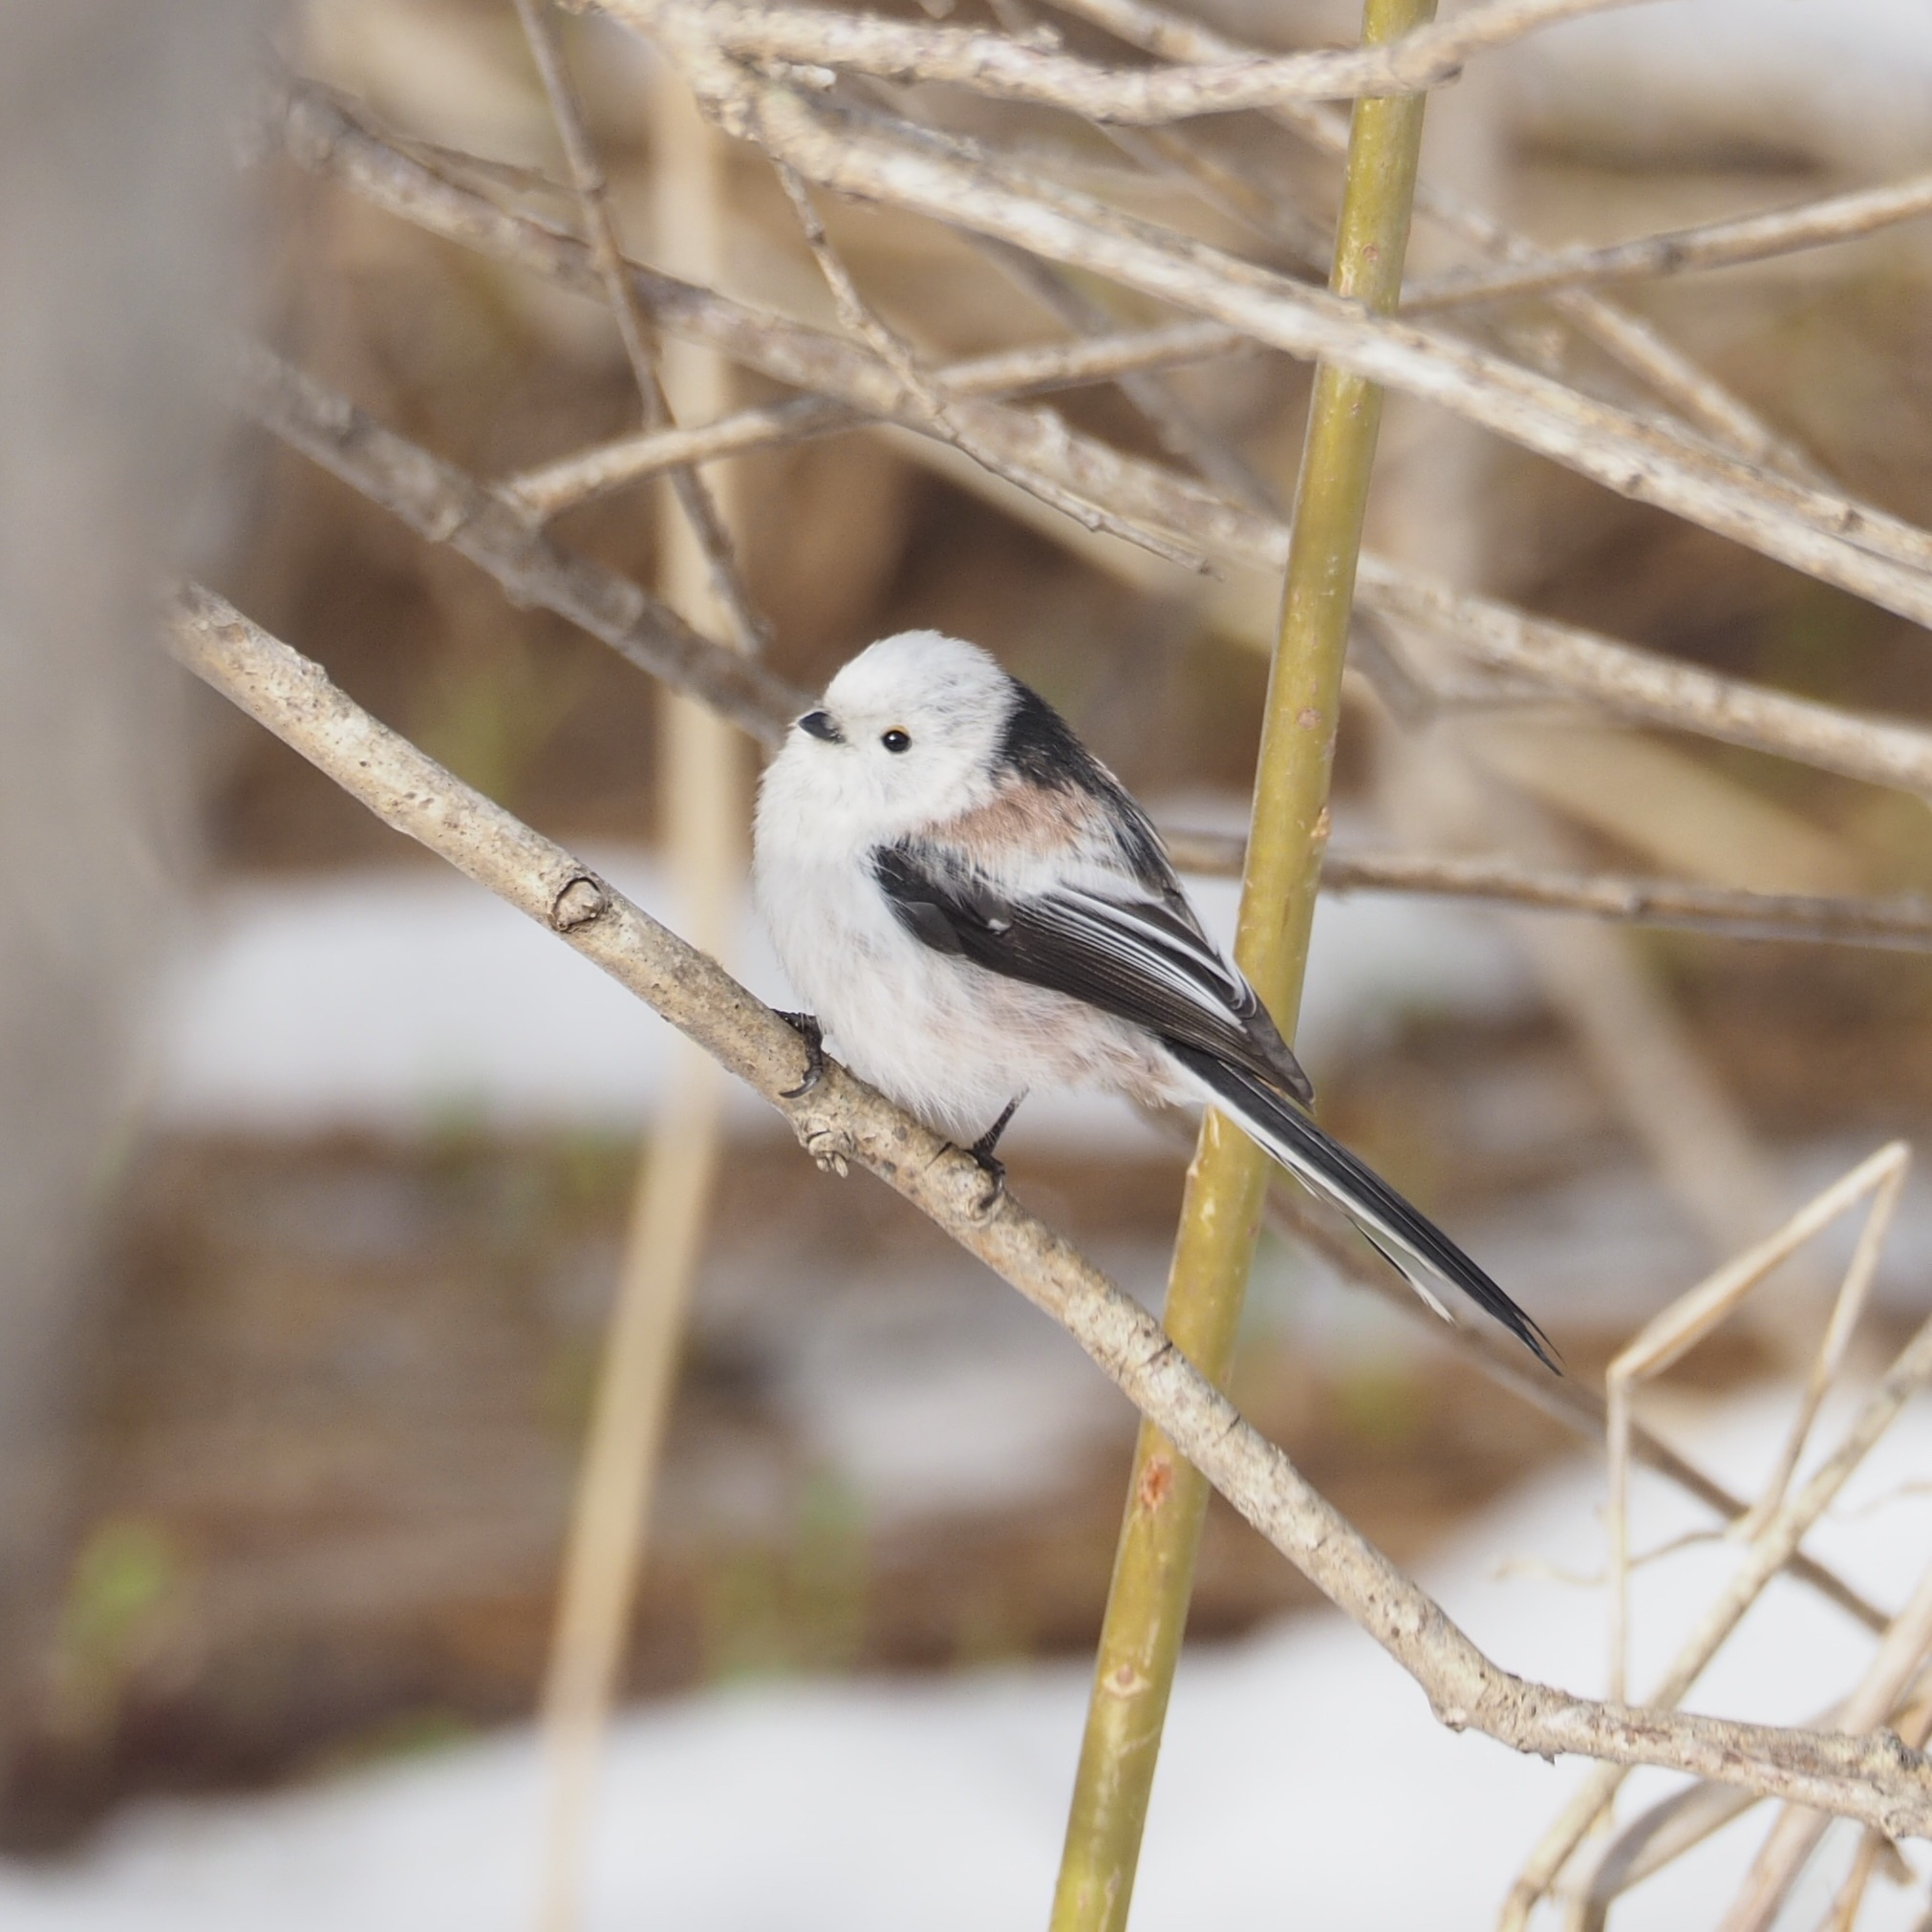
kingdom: Animalia
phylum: Chordata
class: Aves
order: Passeriformes
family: Aegithalidae
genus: Aegithalos
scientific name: Aegithalos caudatus
